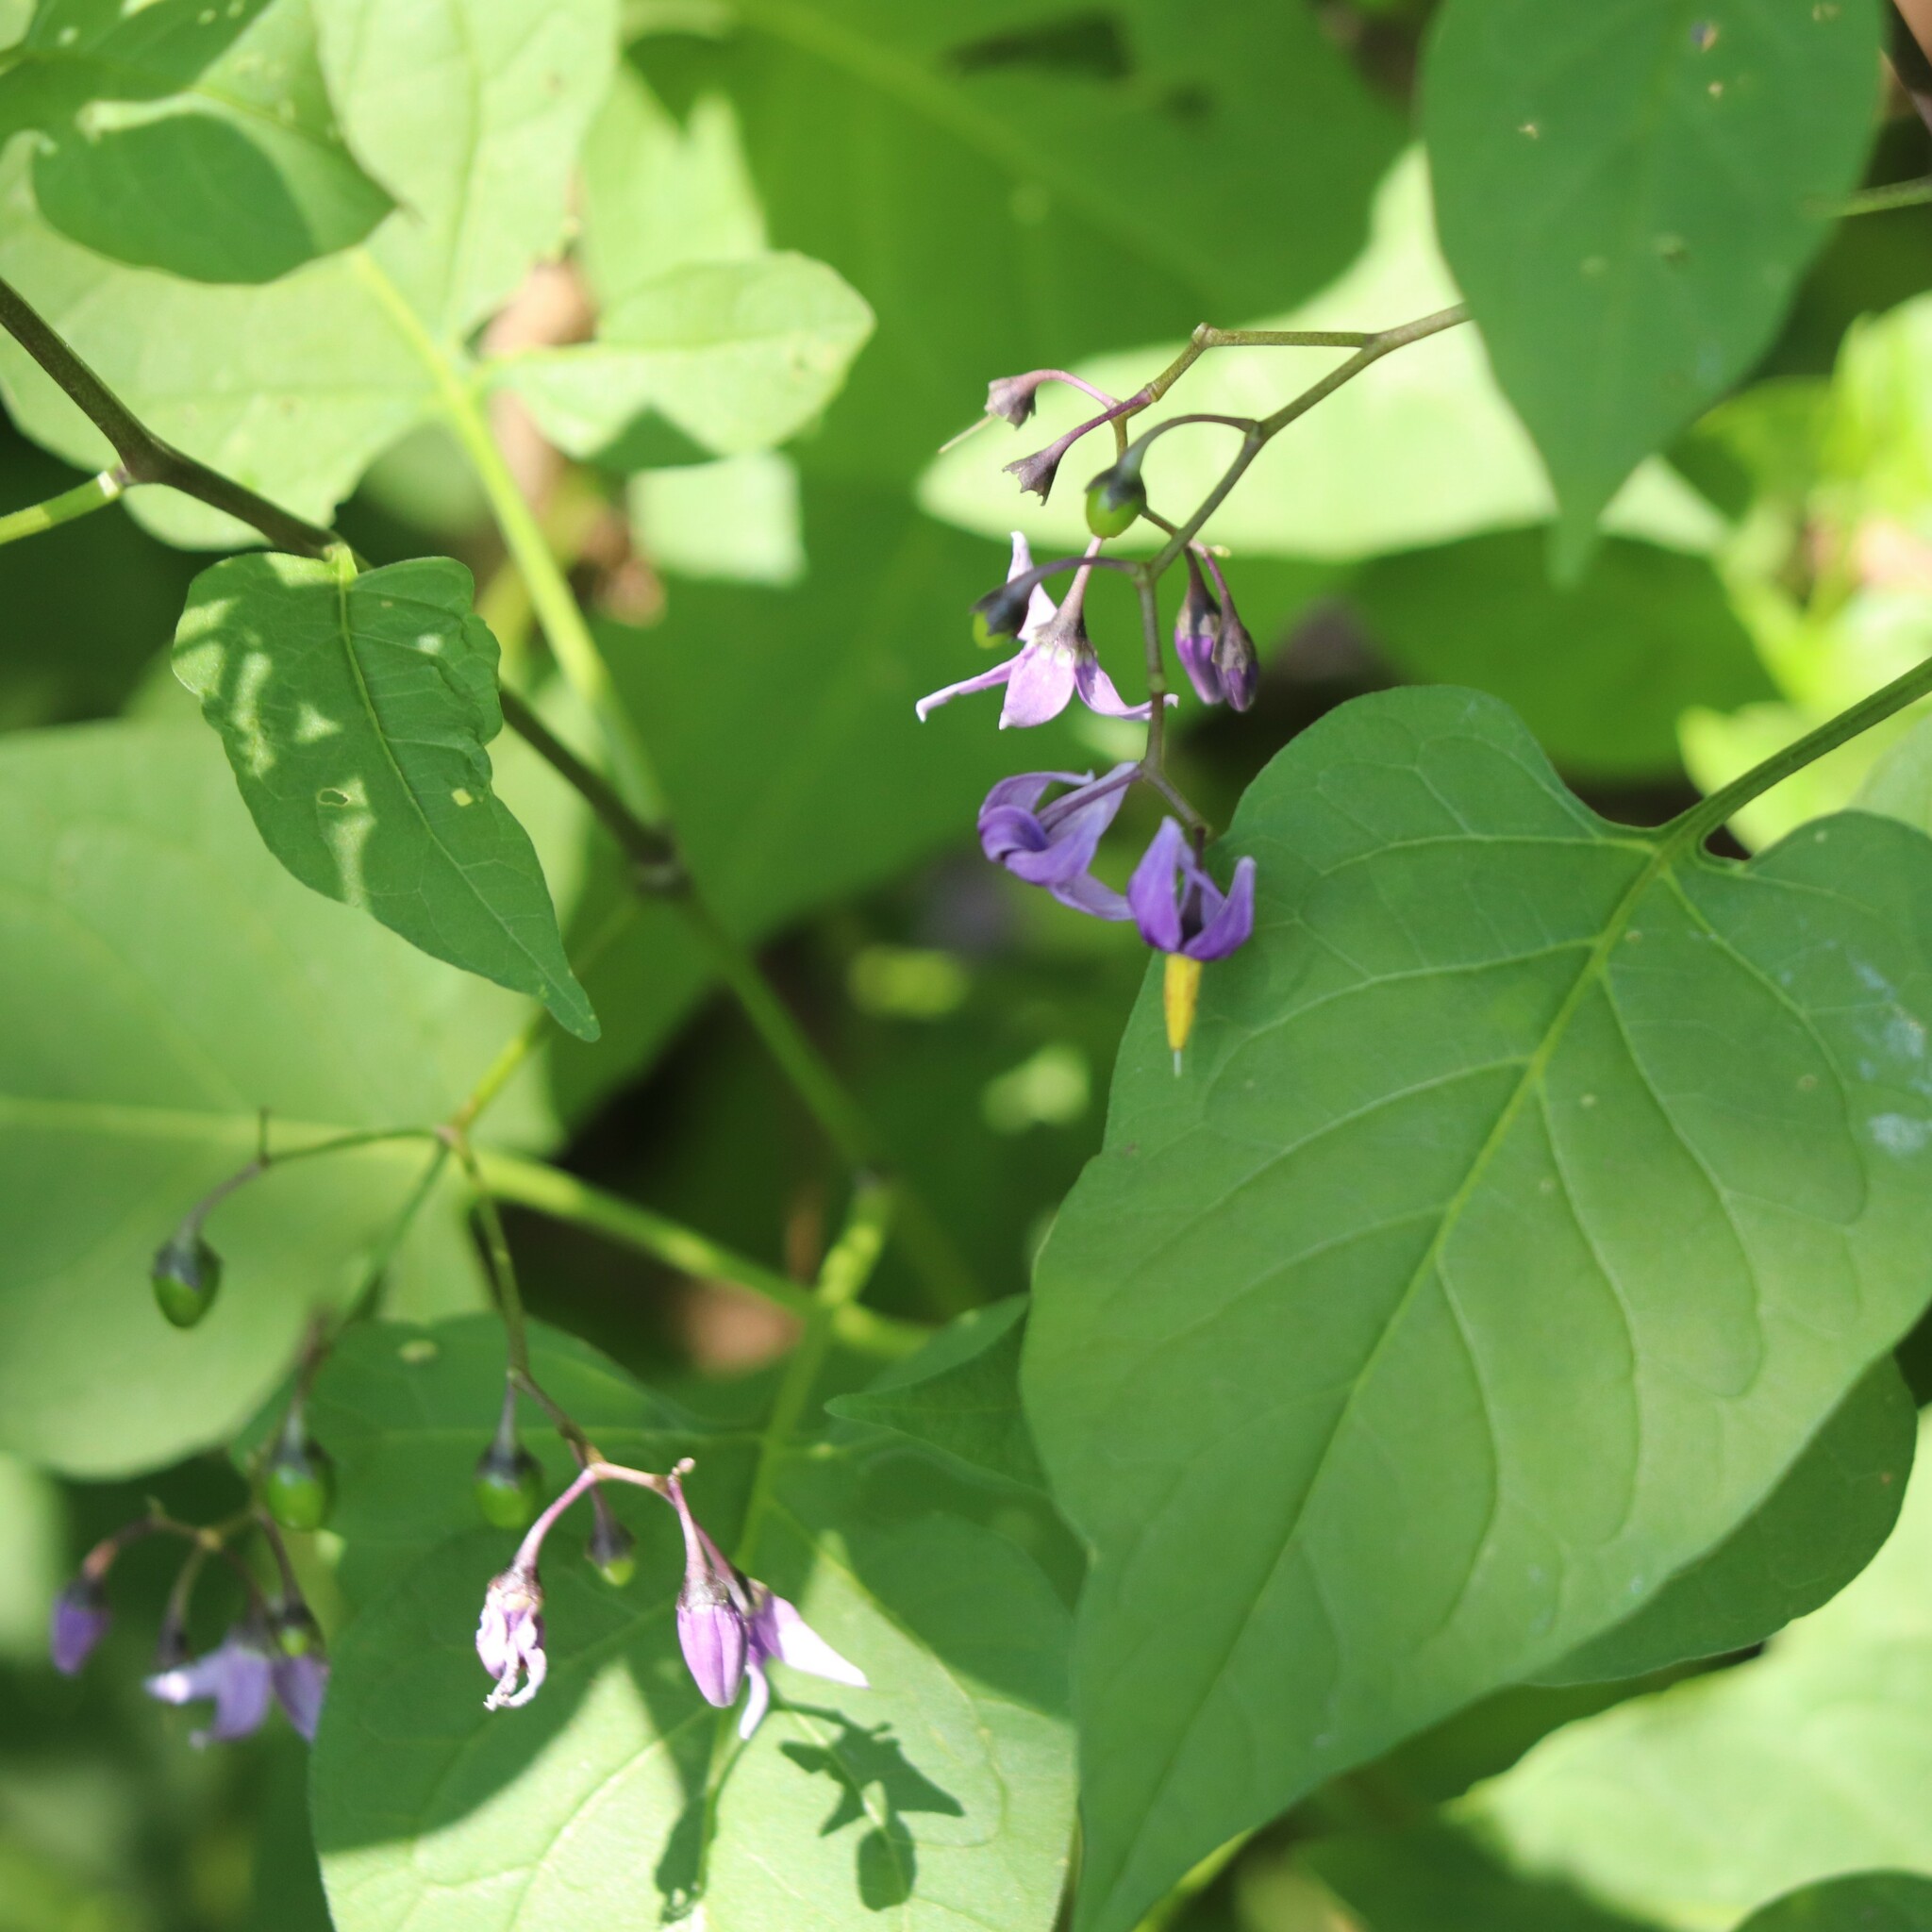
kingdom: Plantae
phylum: Tracheophyta
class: Magnoliopsida
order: Solanales
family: Solanaceae
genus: Solanum
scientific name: Solanum dulcamara
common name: Climbing nightshade
